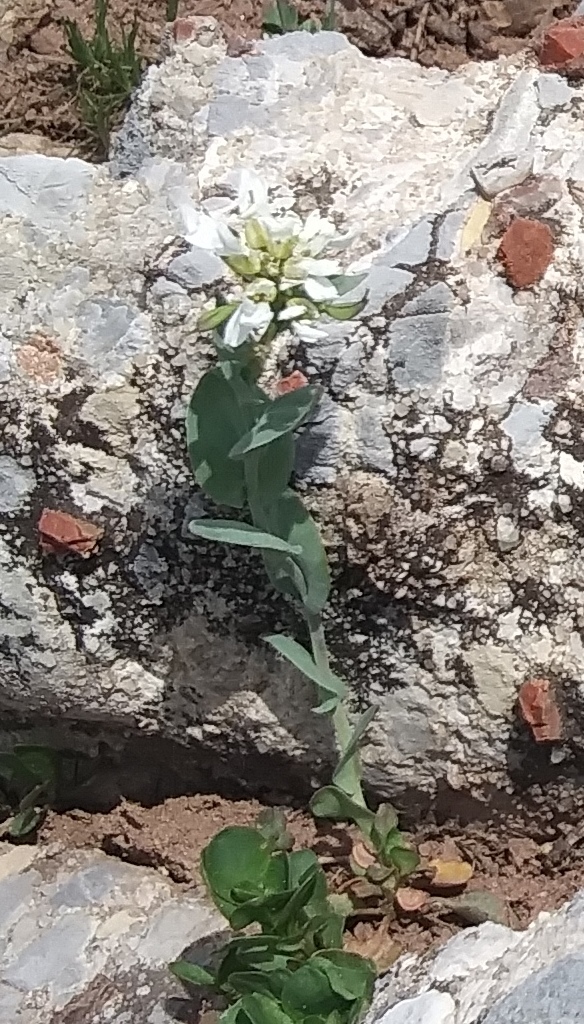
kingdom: Plantae
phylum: Tracheophyta
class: Magnoliopsida
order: Brassicales
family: Brassicaceae
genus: Noccaea
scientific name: Noccaea fendleri
